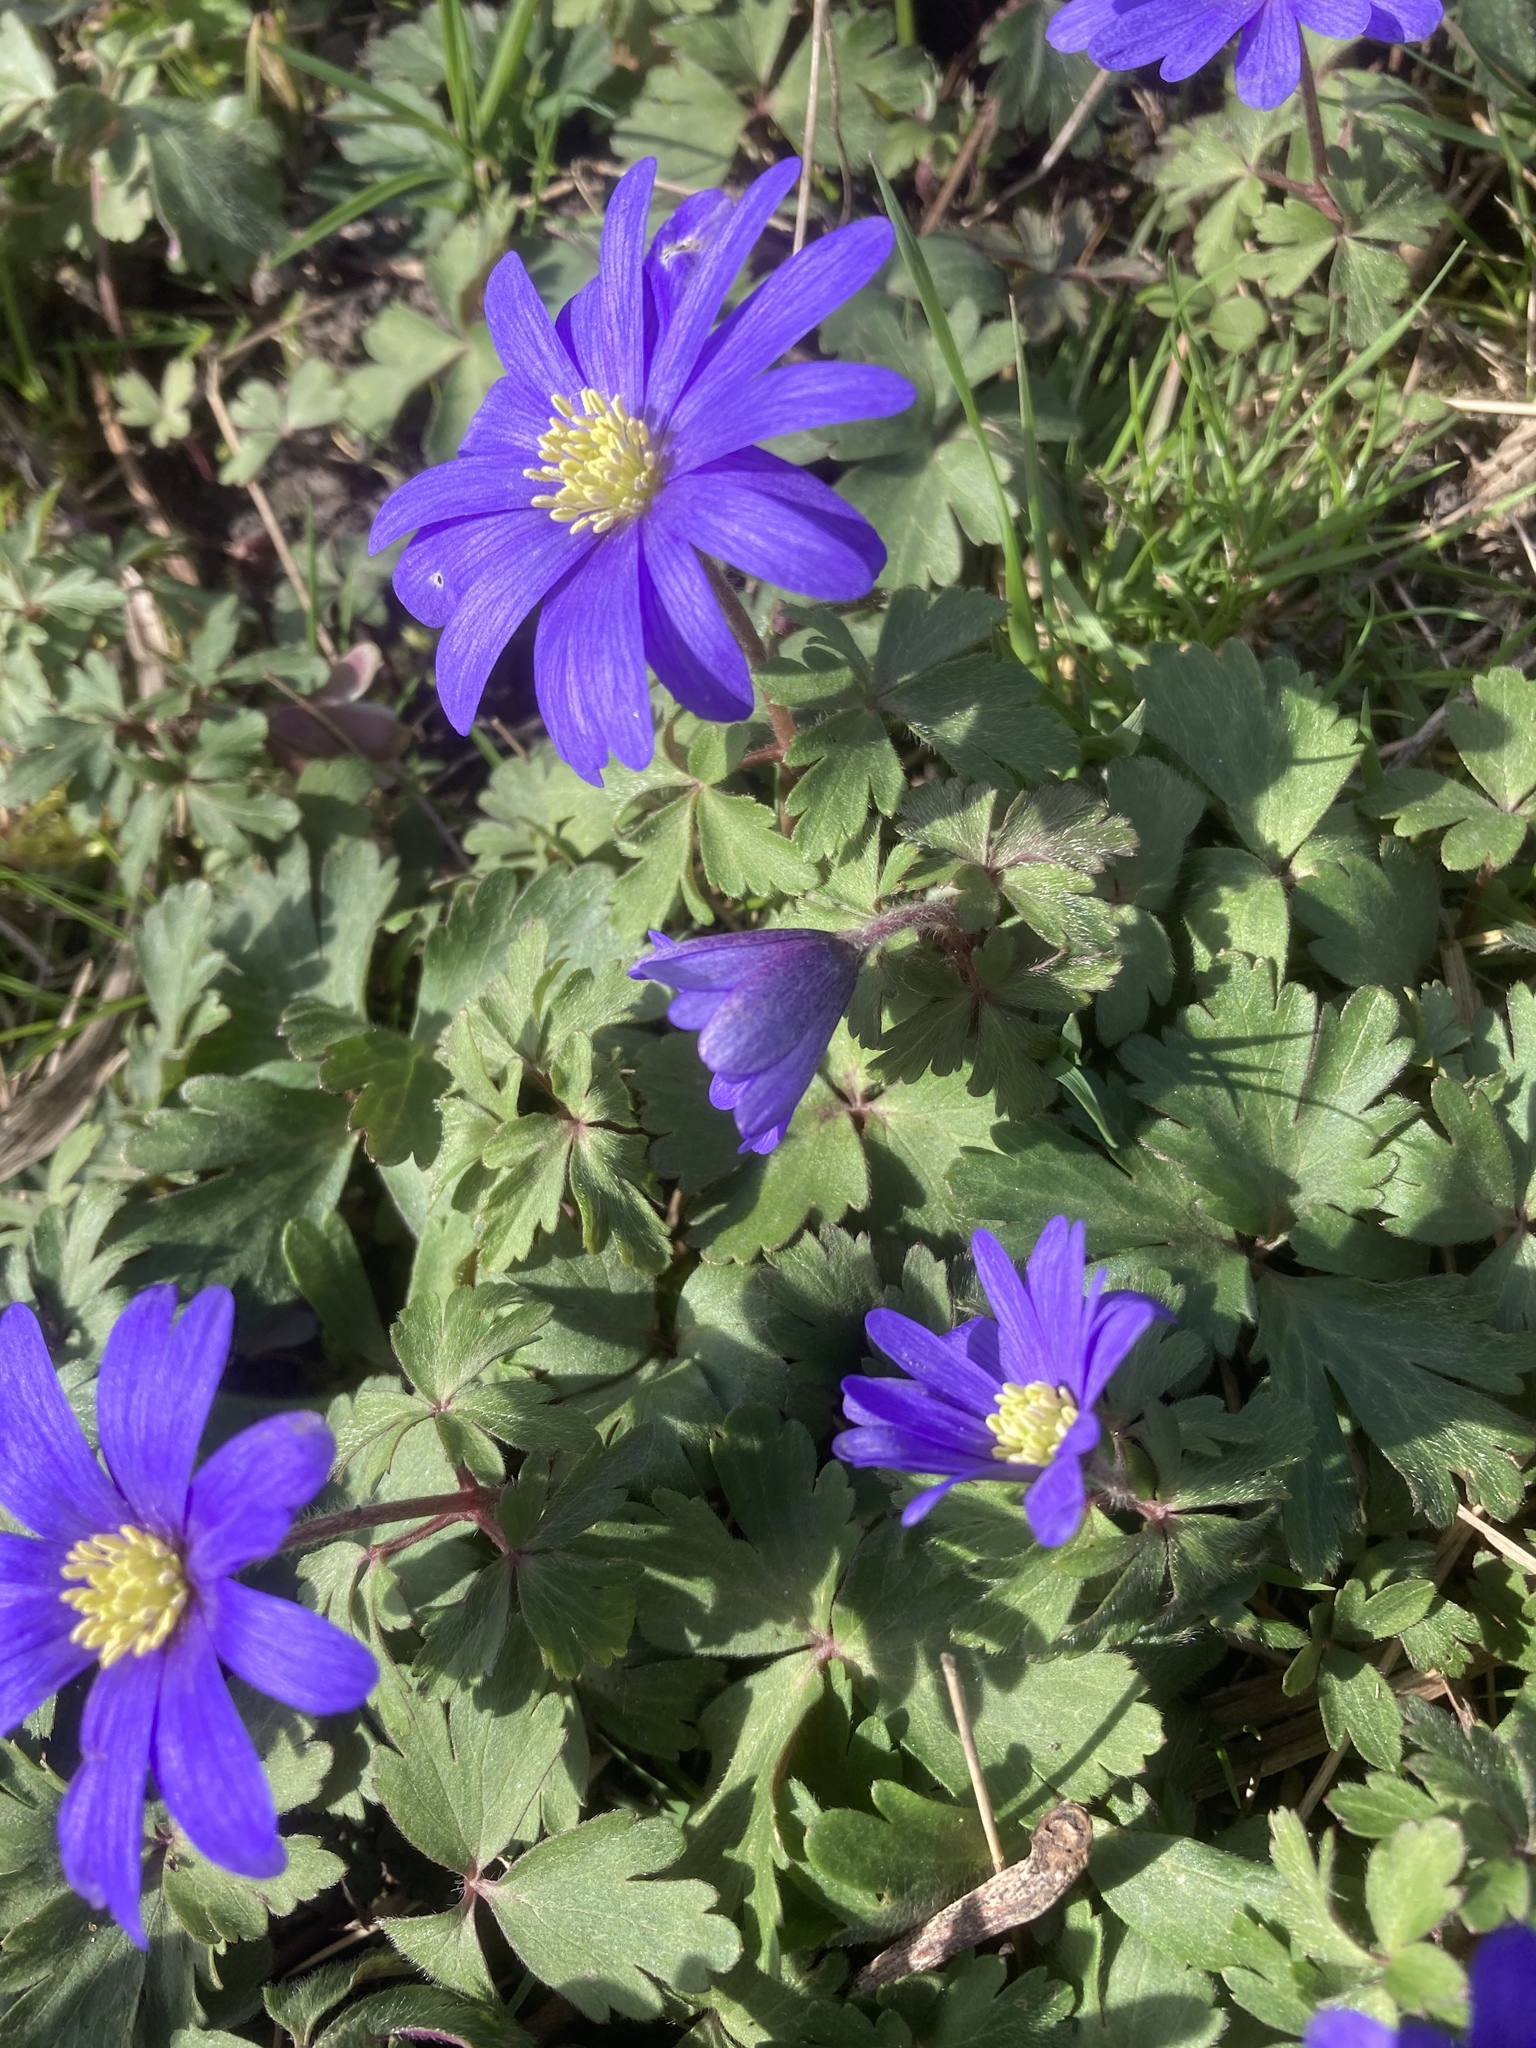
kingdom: Plantae
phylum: Tracheophyta
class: Magnoliopsida
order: Ranunculales
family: Ranunculaceae
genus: Anemone
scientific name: Anemone blanda
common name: Balkan anemone
